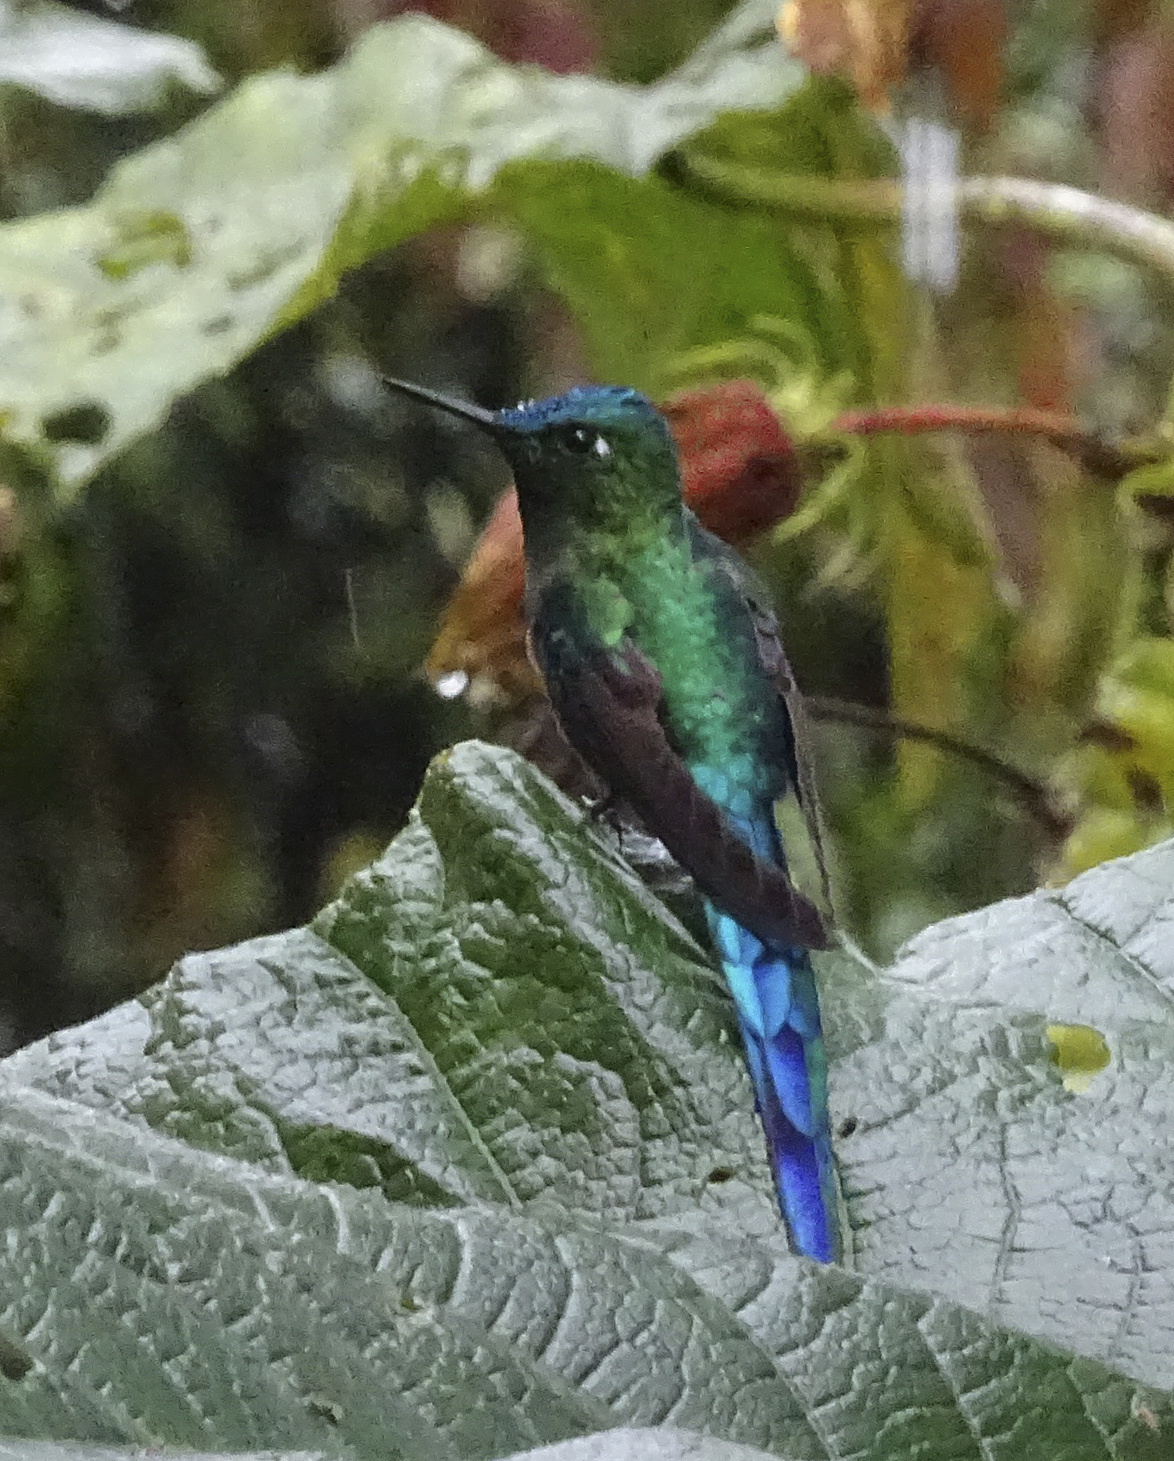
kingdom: Animalia
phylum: Chordata
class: Aves
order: Apodiformes
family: Trochilidae
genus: Aglaiocercus
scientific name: Aglaiocercus kingii
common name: Long-tailed sylph
